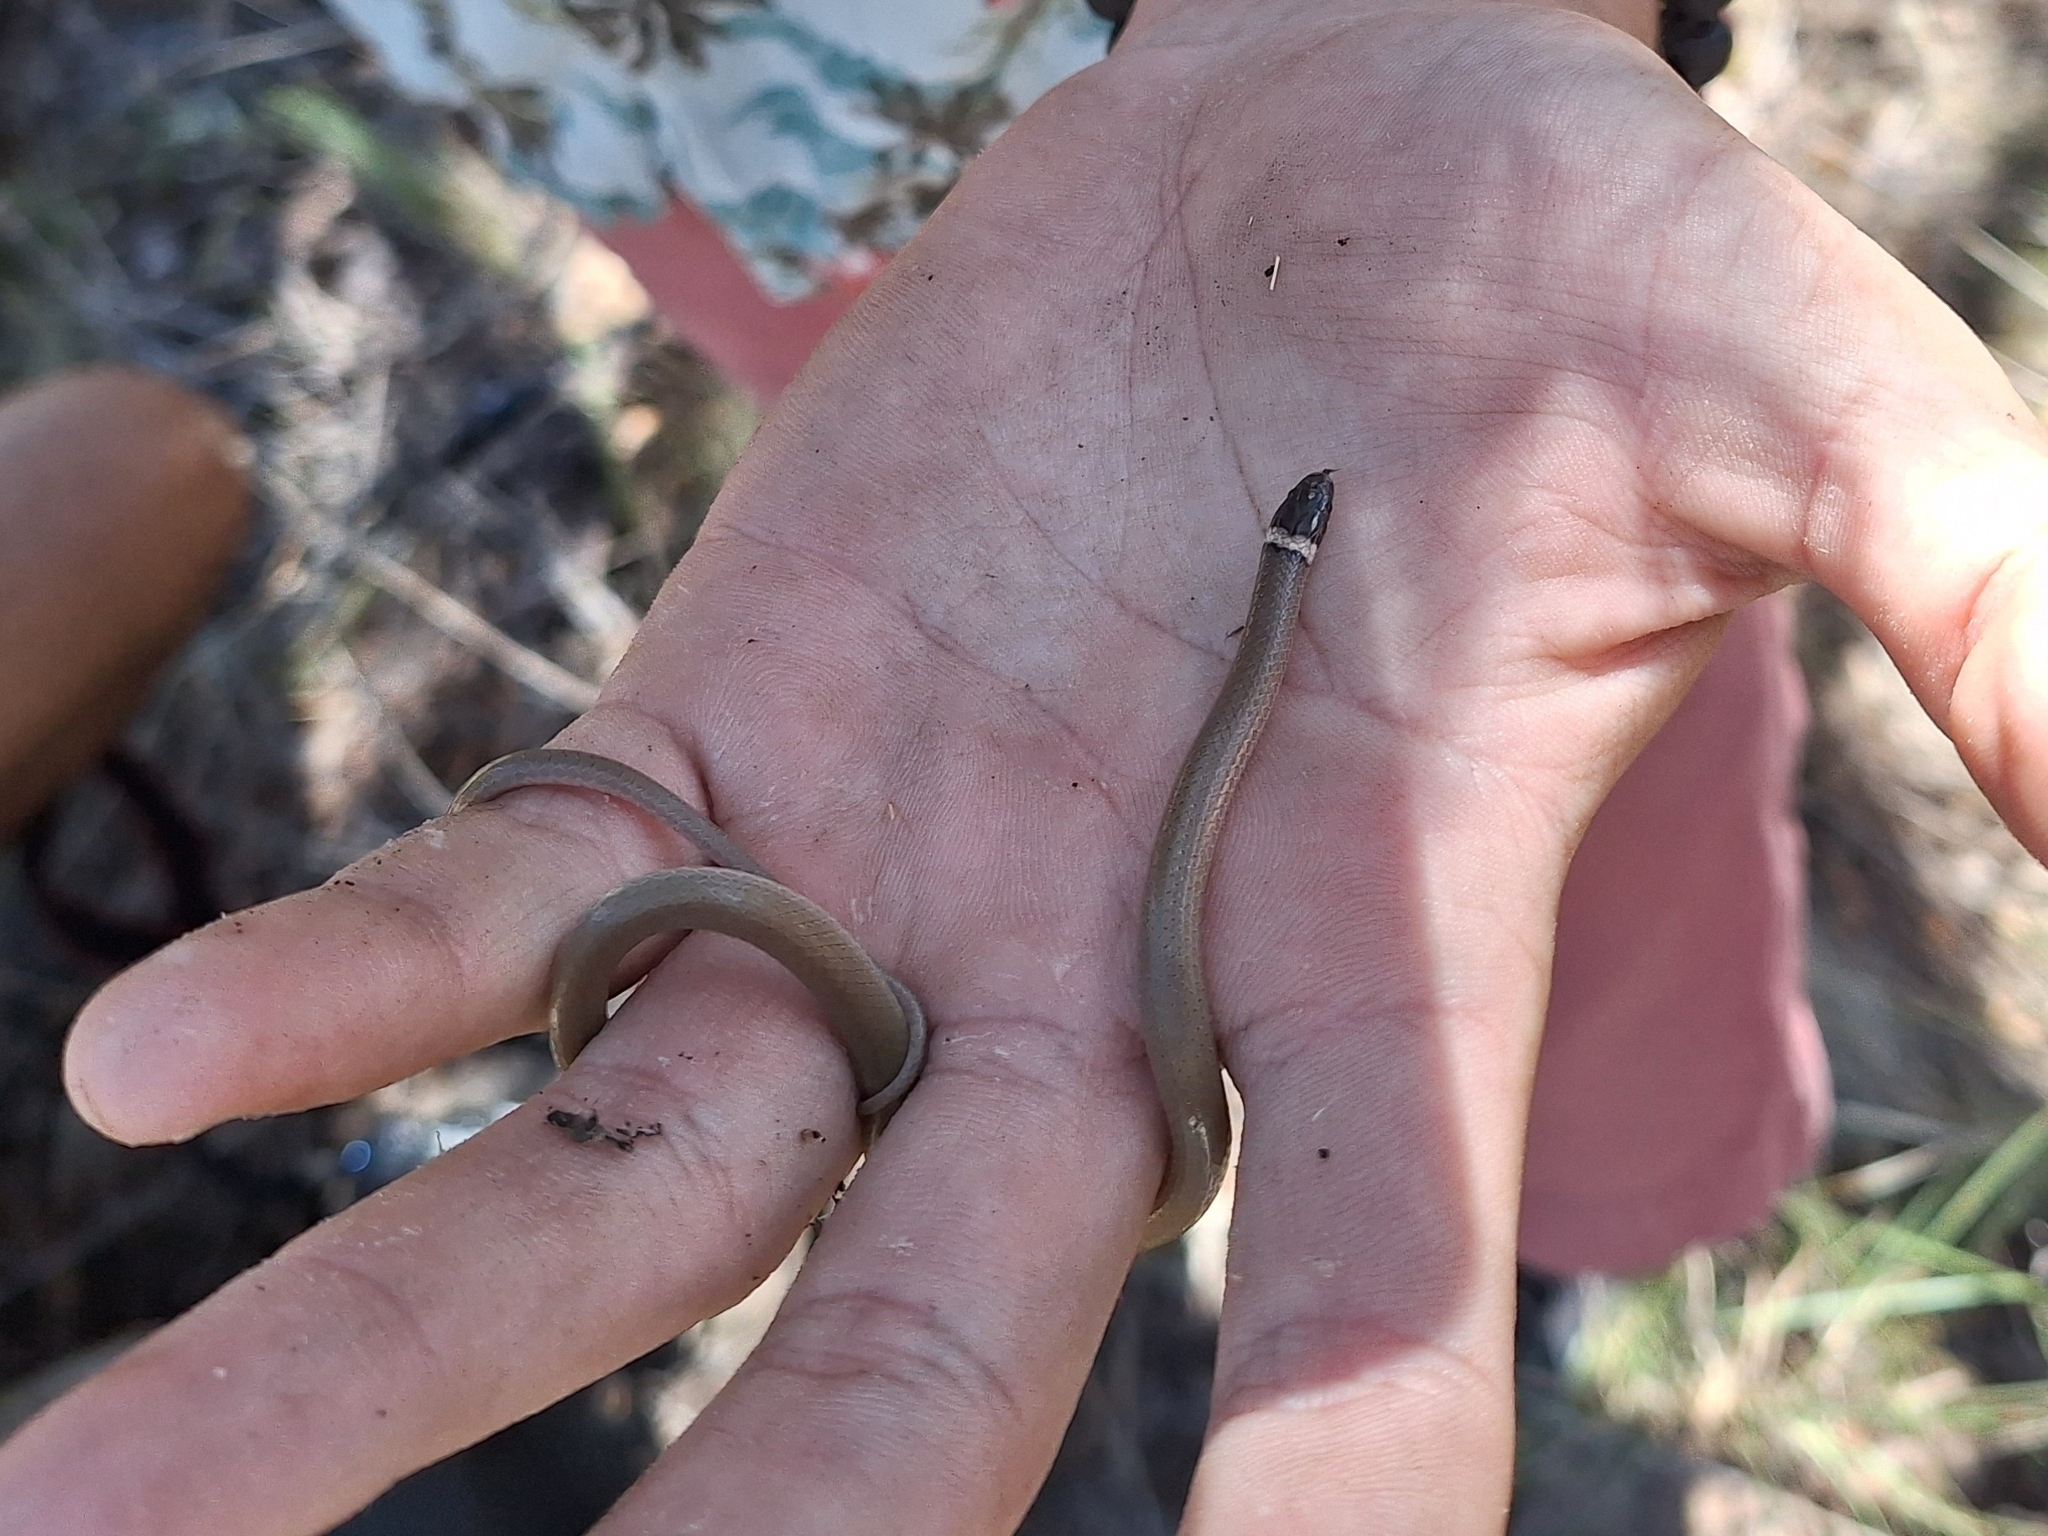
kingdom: Animalia
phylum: Chordata
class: Squamata
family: Colubridae
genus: Tantilla
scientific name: Tantilla wilcoxi
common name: Chihuahuan blackhead snake
